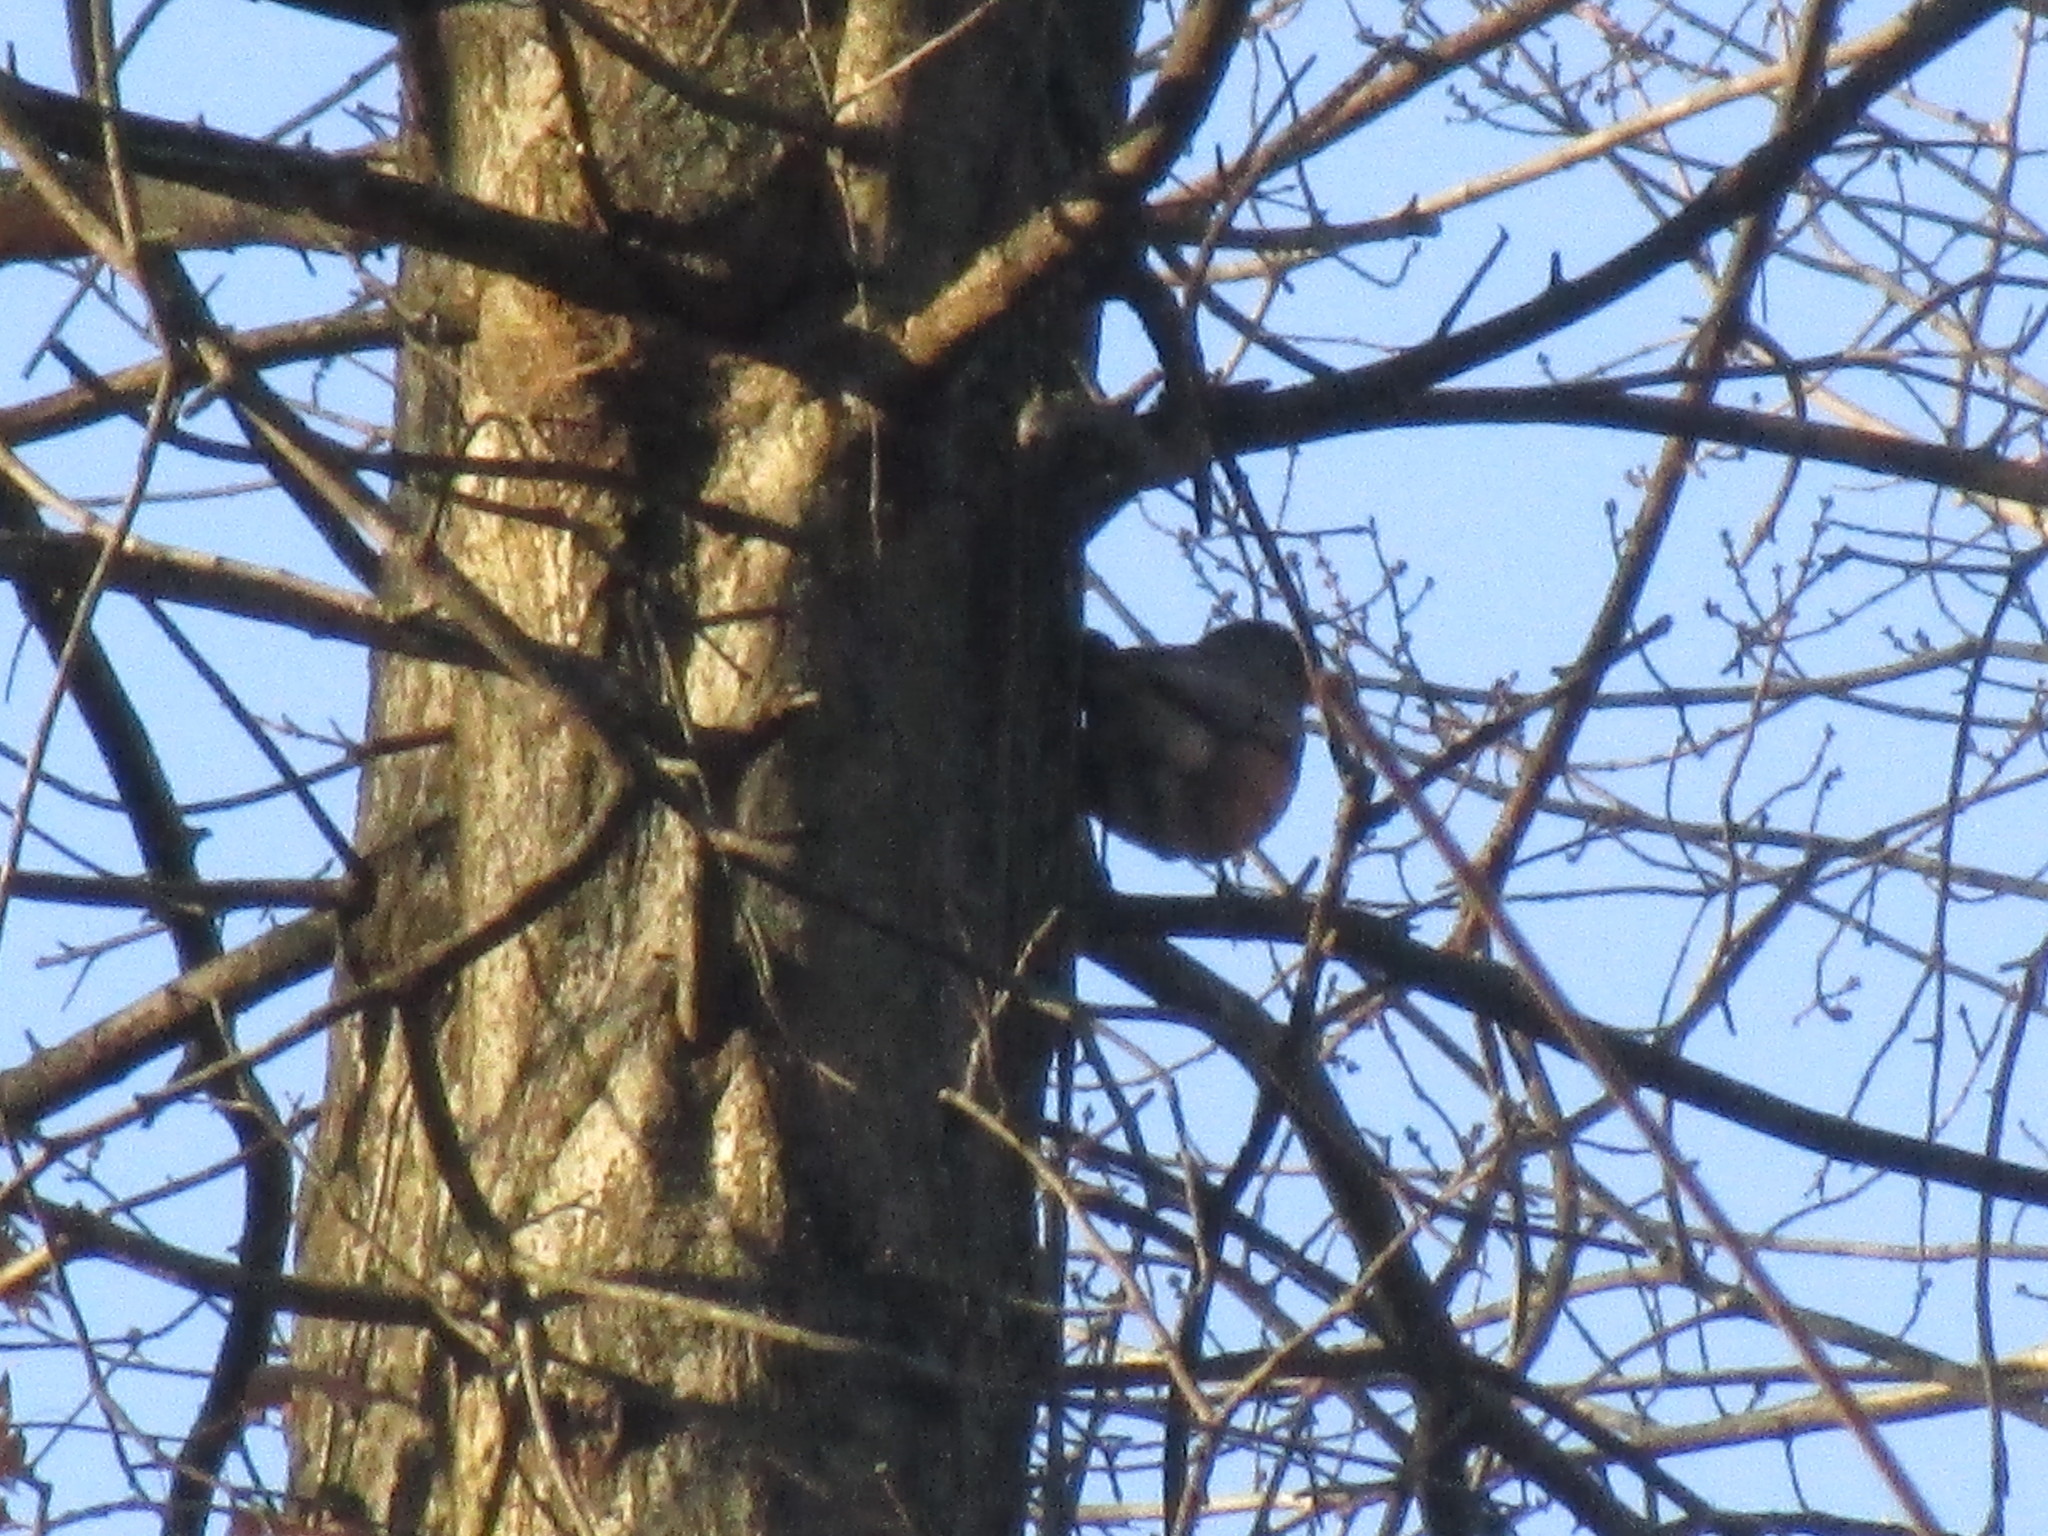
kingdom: Animalia
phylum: Chordata
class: Aves
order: Passeriformes
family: Turdidae
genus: Turdus
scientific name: Turdus migratorius
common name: American robin
